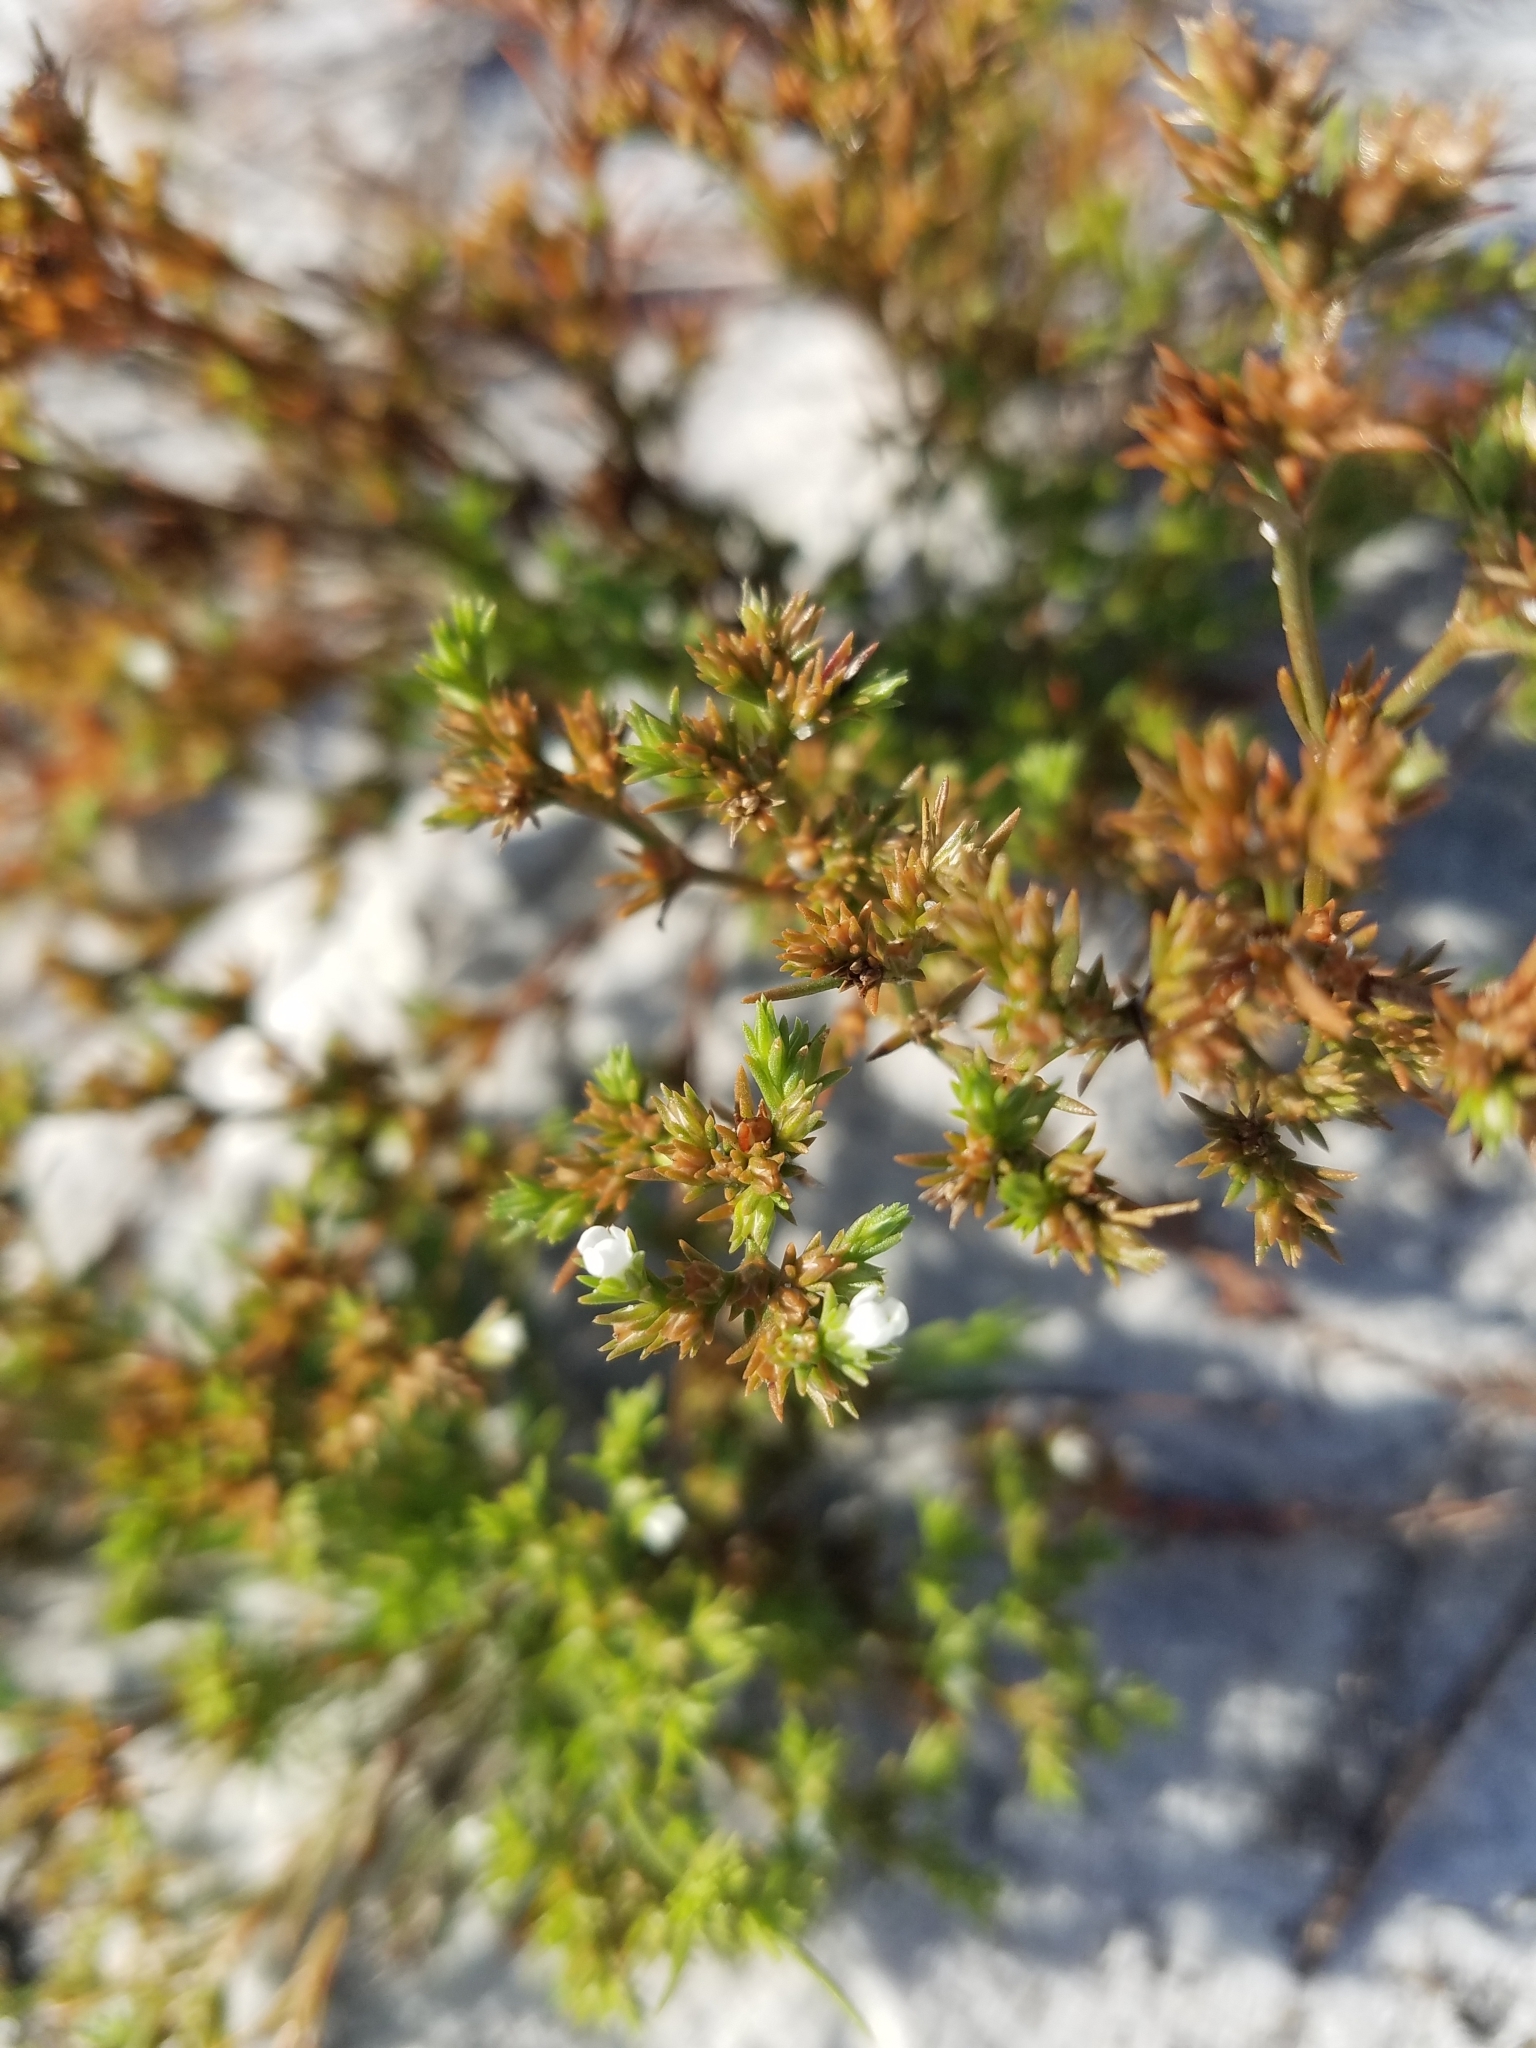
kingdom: Plantae
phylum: Tracheophyta
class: Magnoliopsida
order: Lamiales
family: Tetrachondraceae
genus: Polypremum
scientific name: Polypremum procumbens
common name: Juniper-leaf
